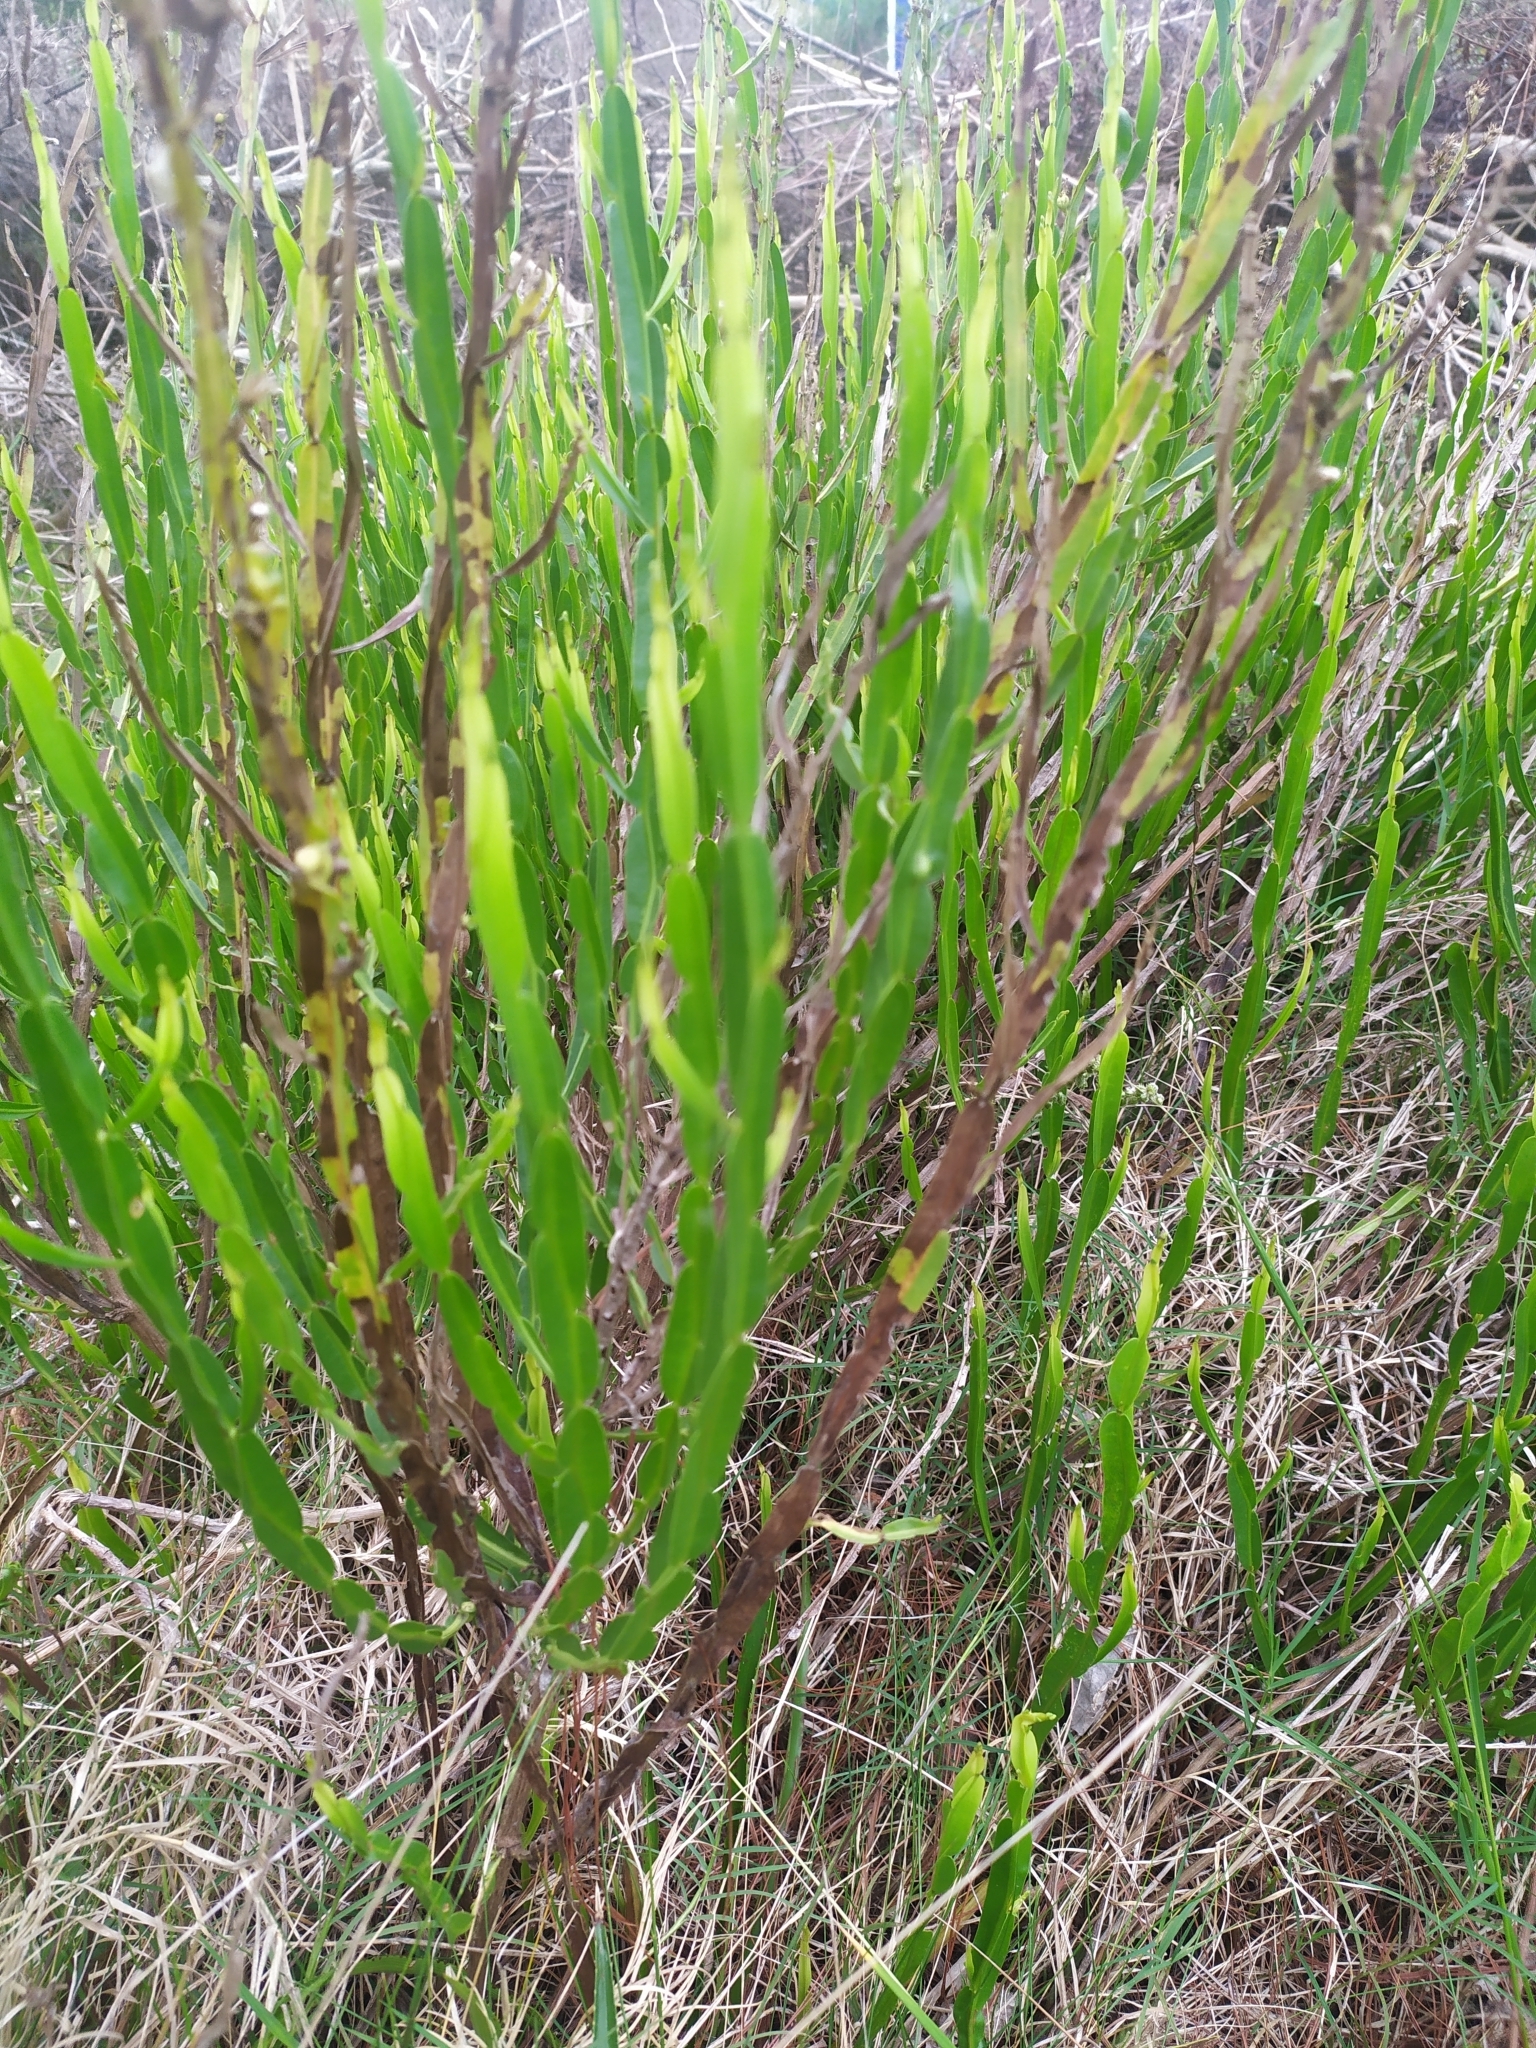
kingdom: Plantae
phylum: Tracheophyta
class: Magnoliopsida
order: Asterales
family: Asteraceae
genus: Baccharis
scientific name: Baccharis trimera
